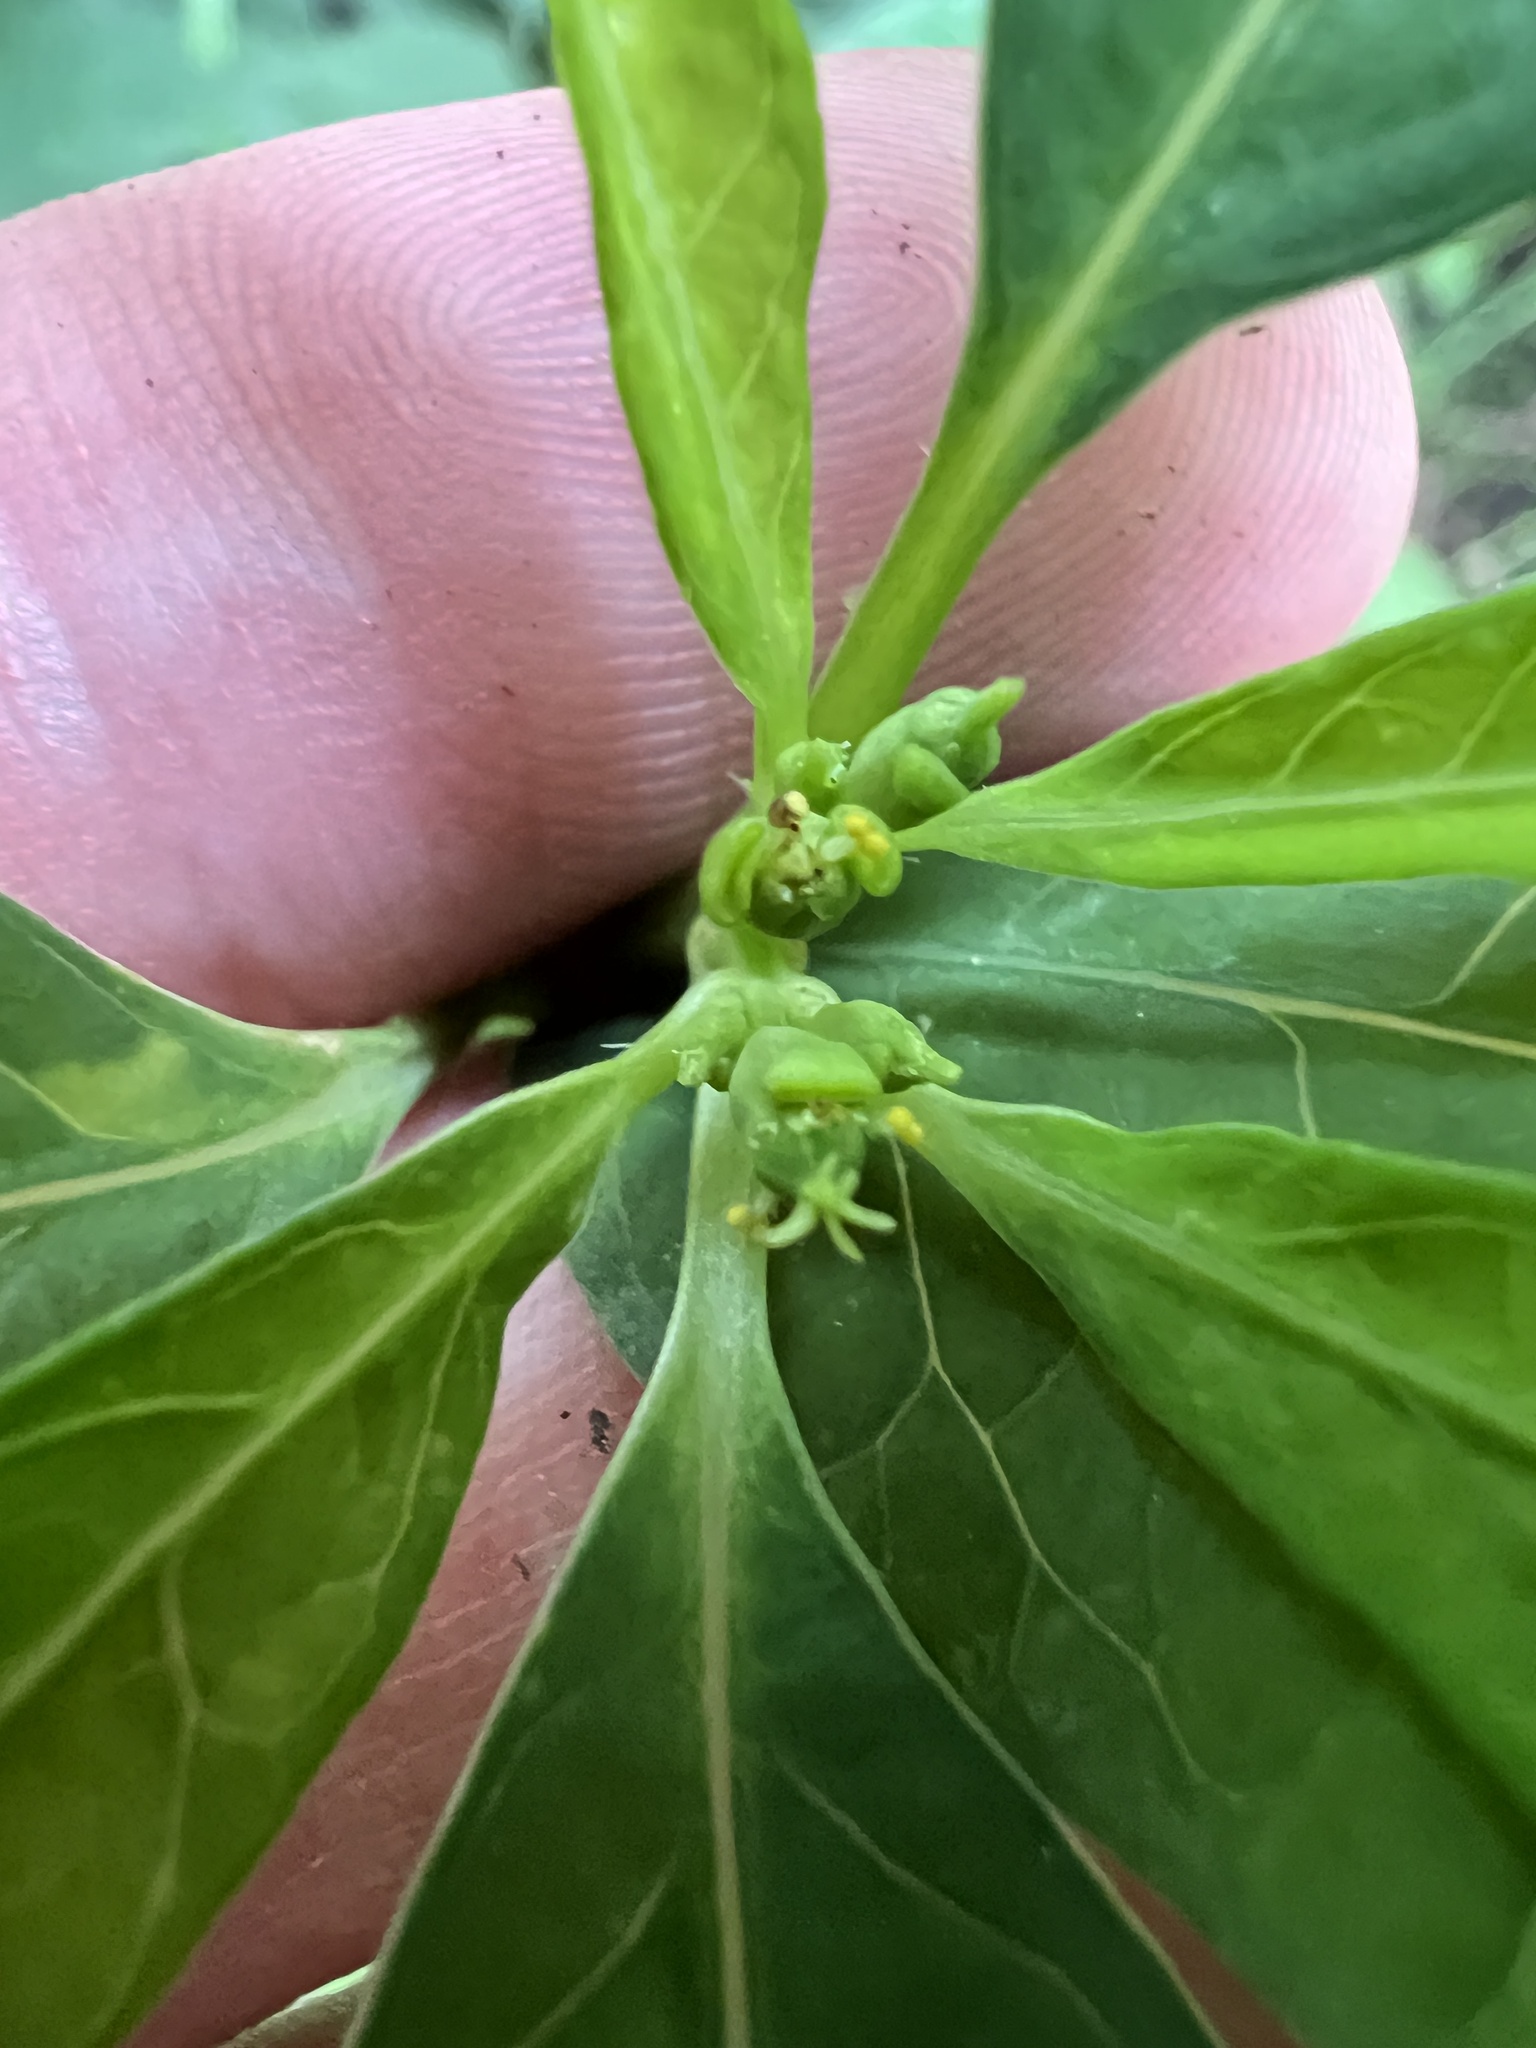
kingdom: Plantae
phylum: Tracheophyta
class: Magnoliopsida
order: Malpighiales
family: Euphorbiaceae
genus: Euphorbia
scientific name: Euphorbia heterophylla
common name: Mexican fireplant
